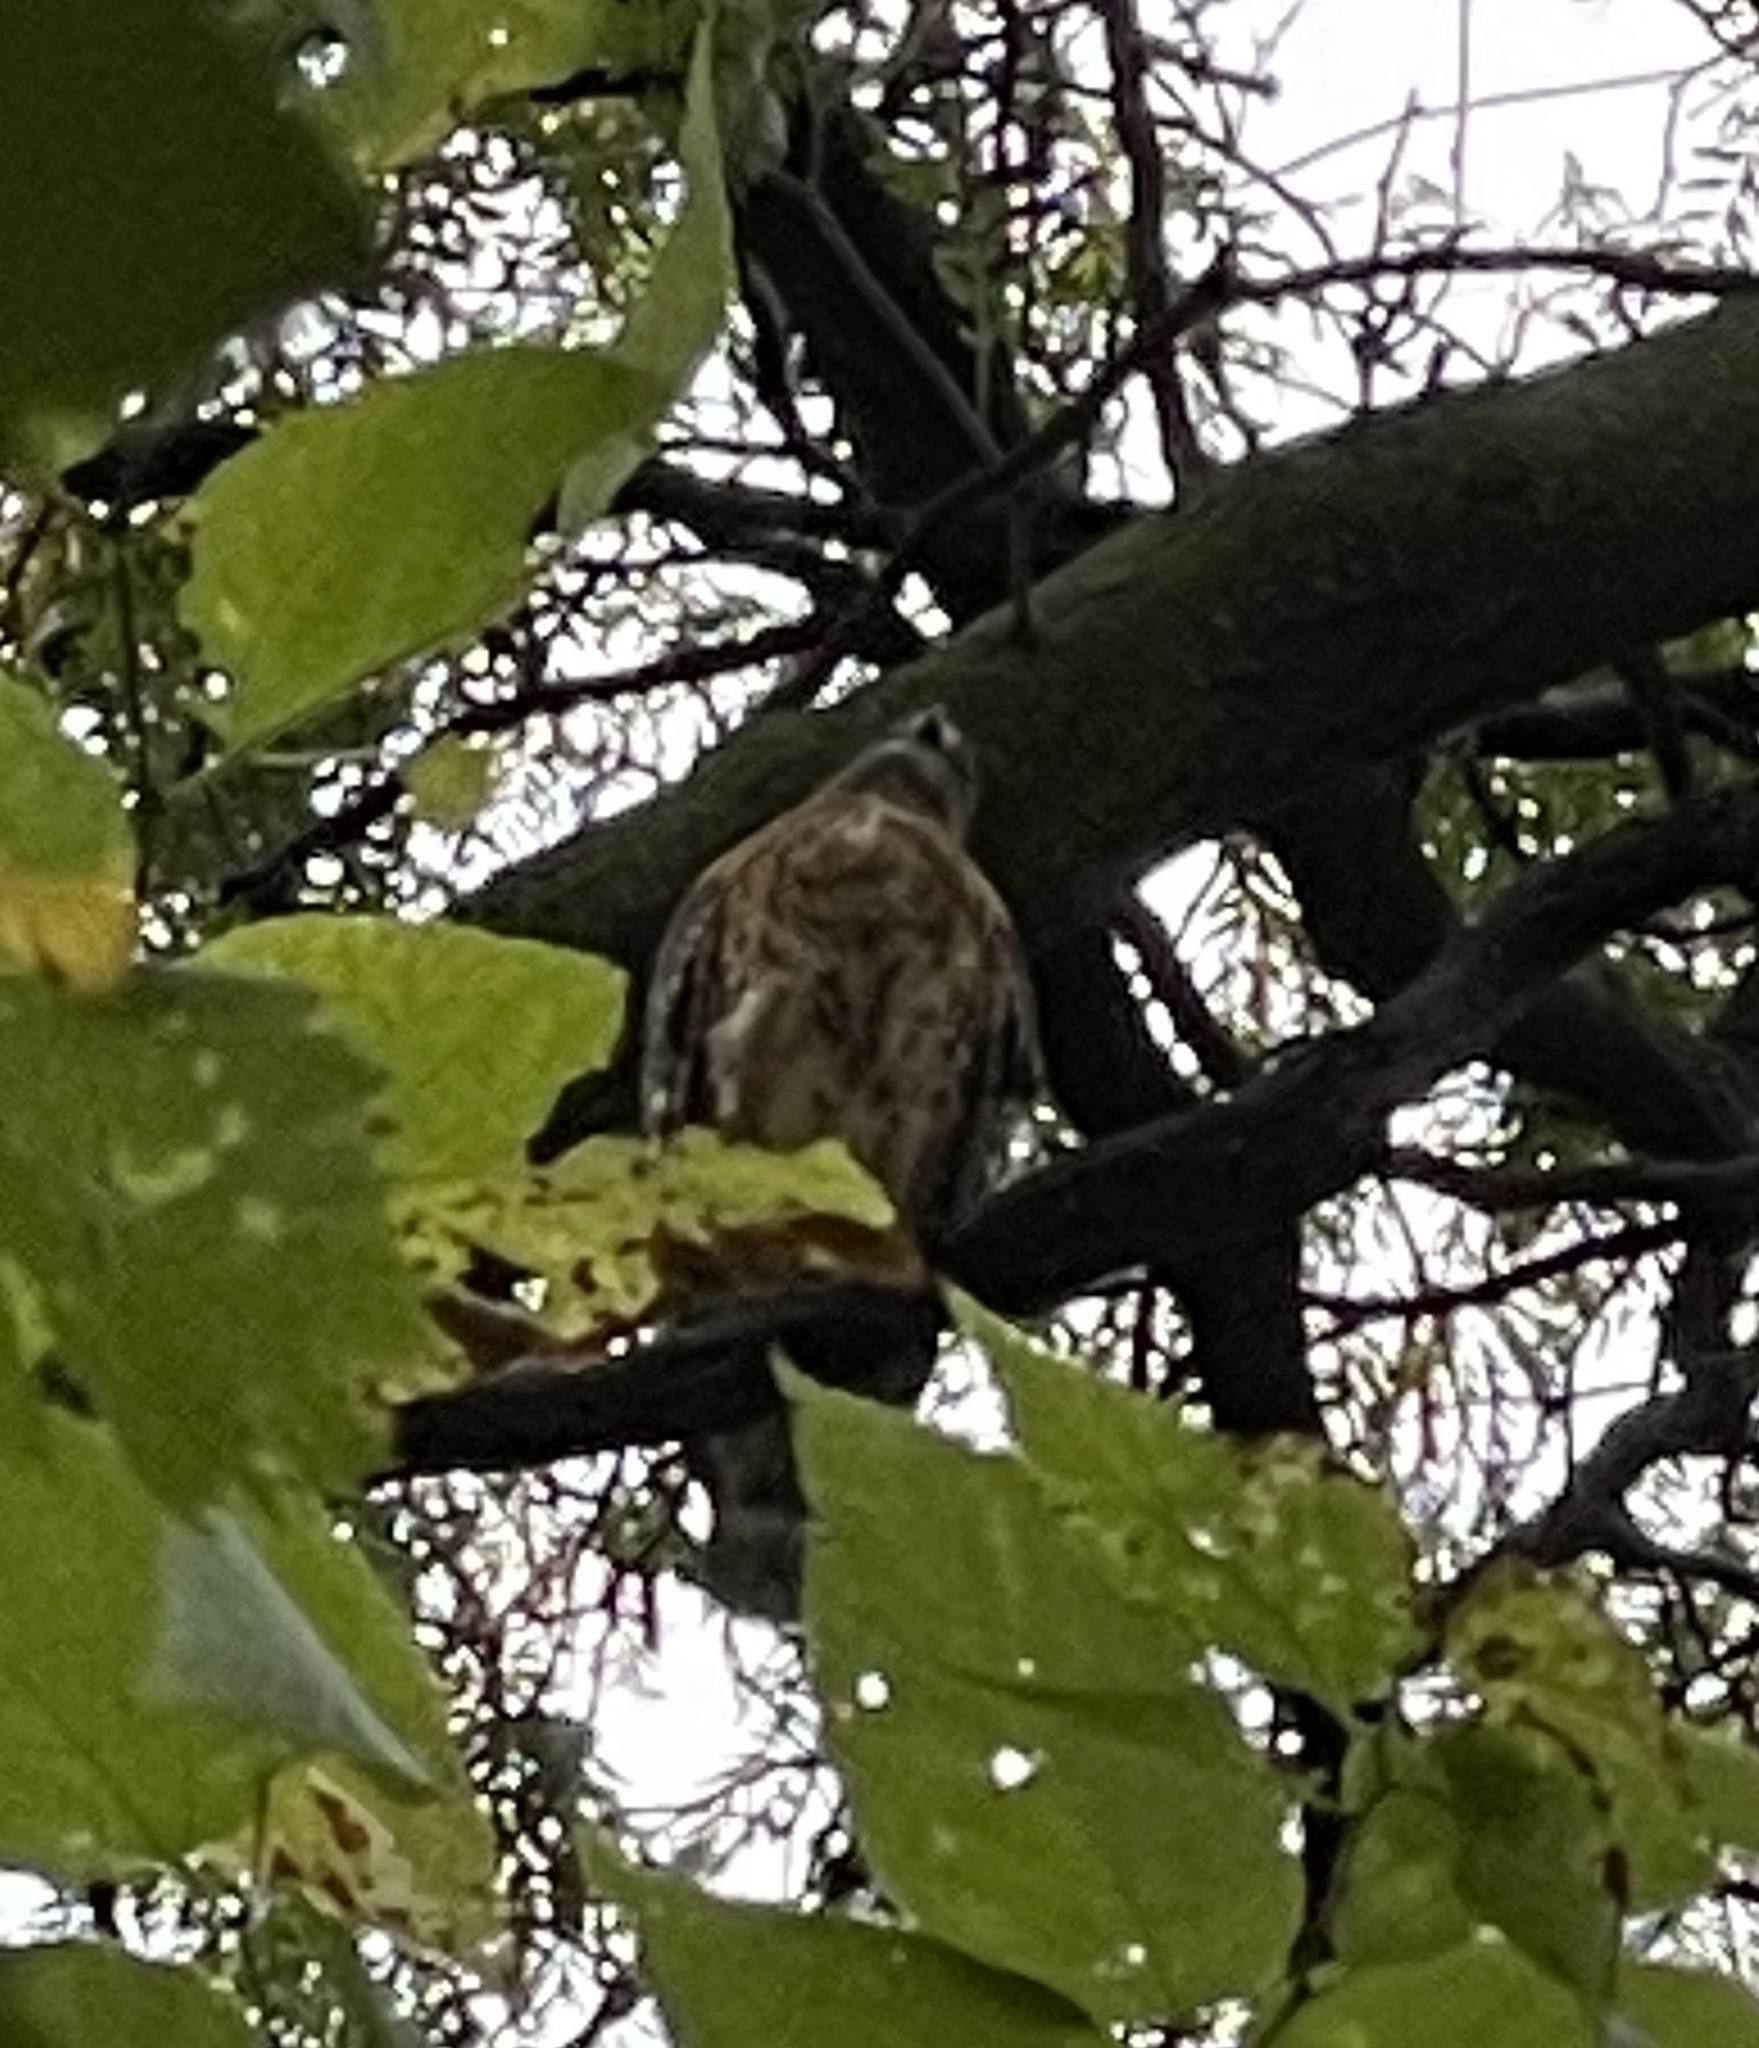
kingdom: Animalia
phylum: Chordata
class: Aves
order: Accipitriformes
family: Accipitridae
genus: Buteo
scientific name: Buteo lineatus
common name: Red-shouldered hawk
